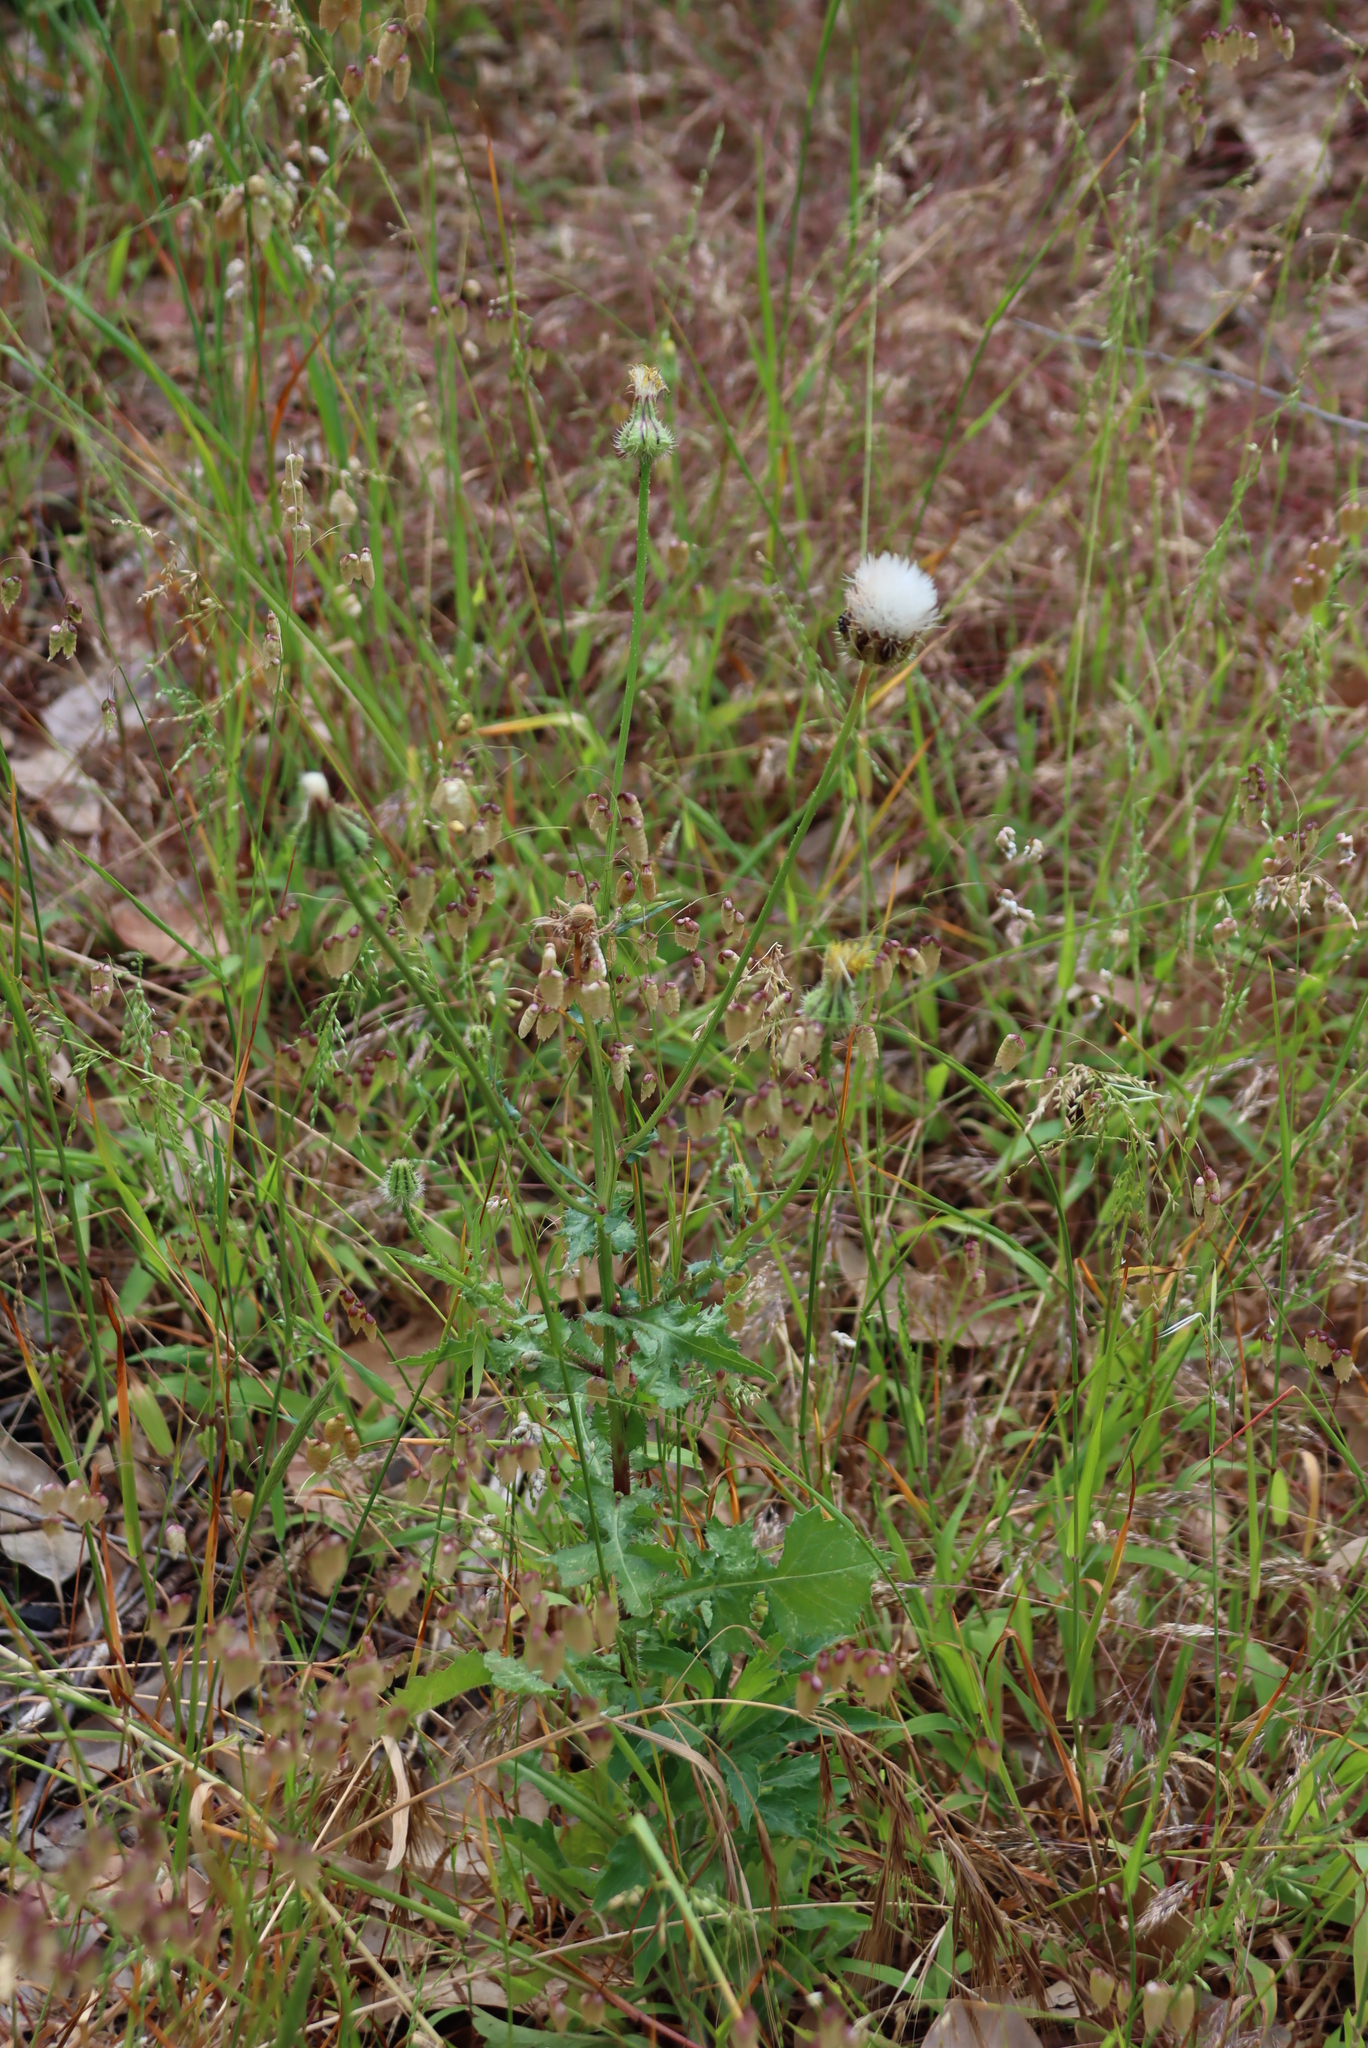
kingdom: Plantae
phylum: Tracheophyta
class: Magnoliopsida
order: Asterales
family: Asteraceae
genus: Urospermum
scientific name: Urospermum picroides
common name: False hawkbit
